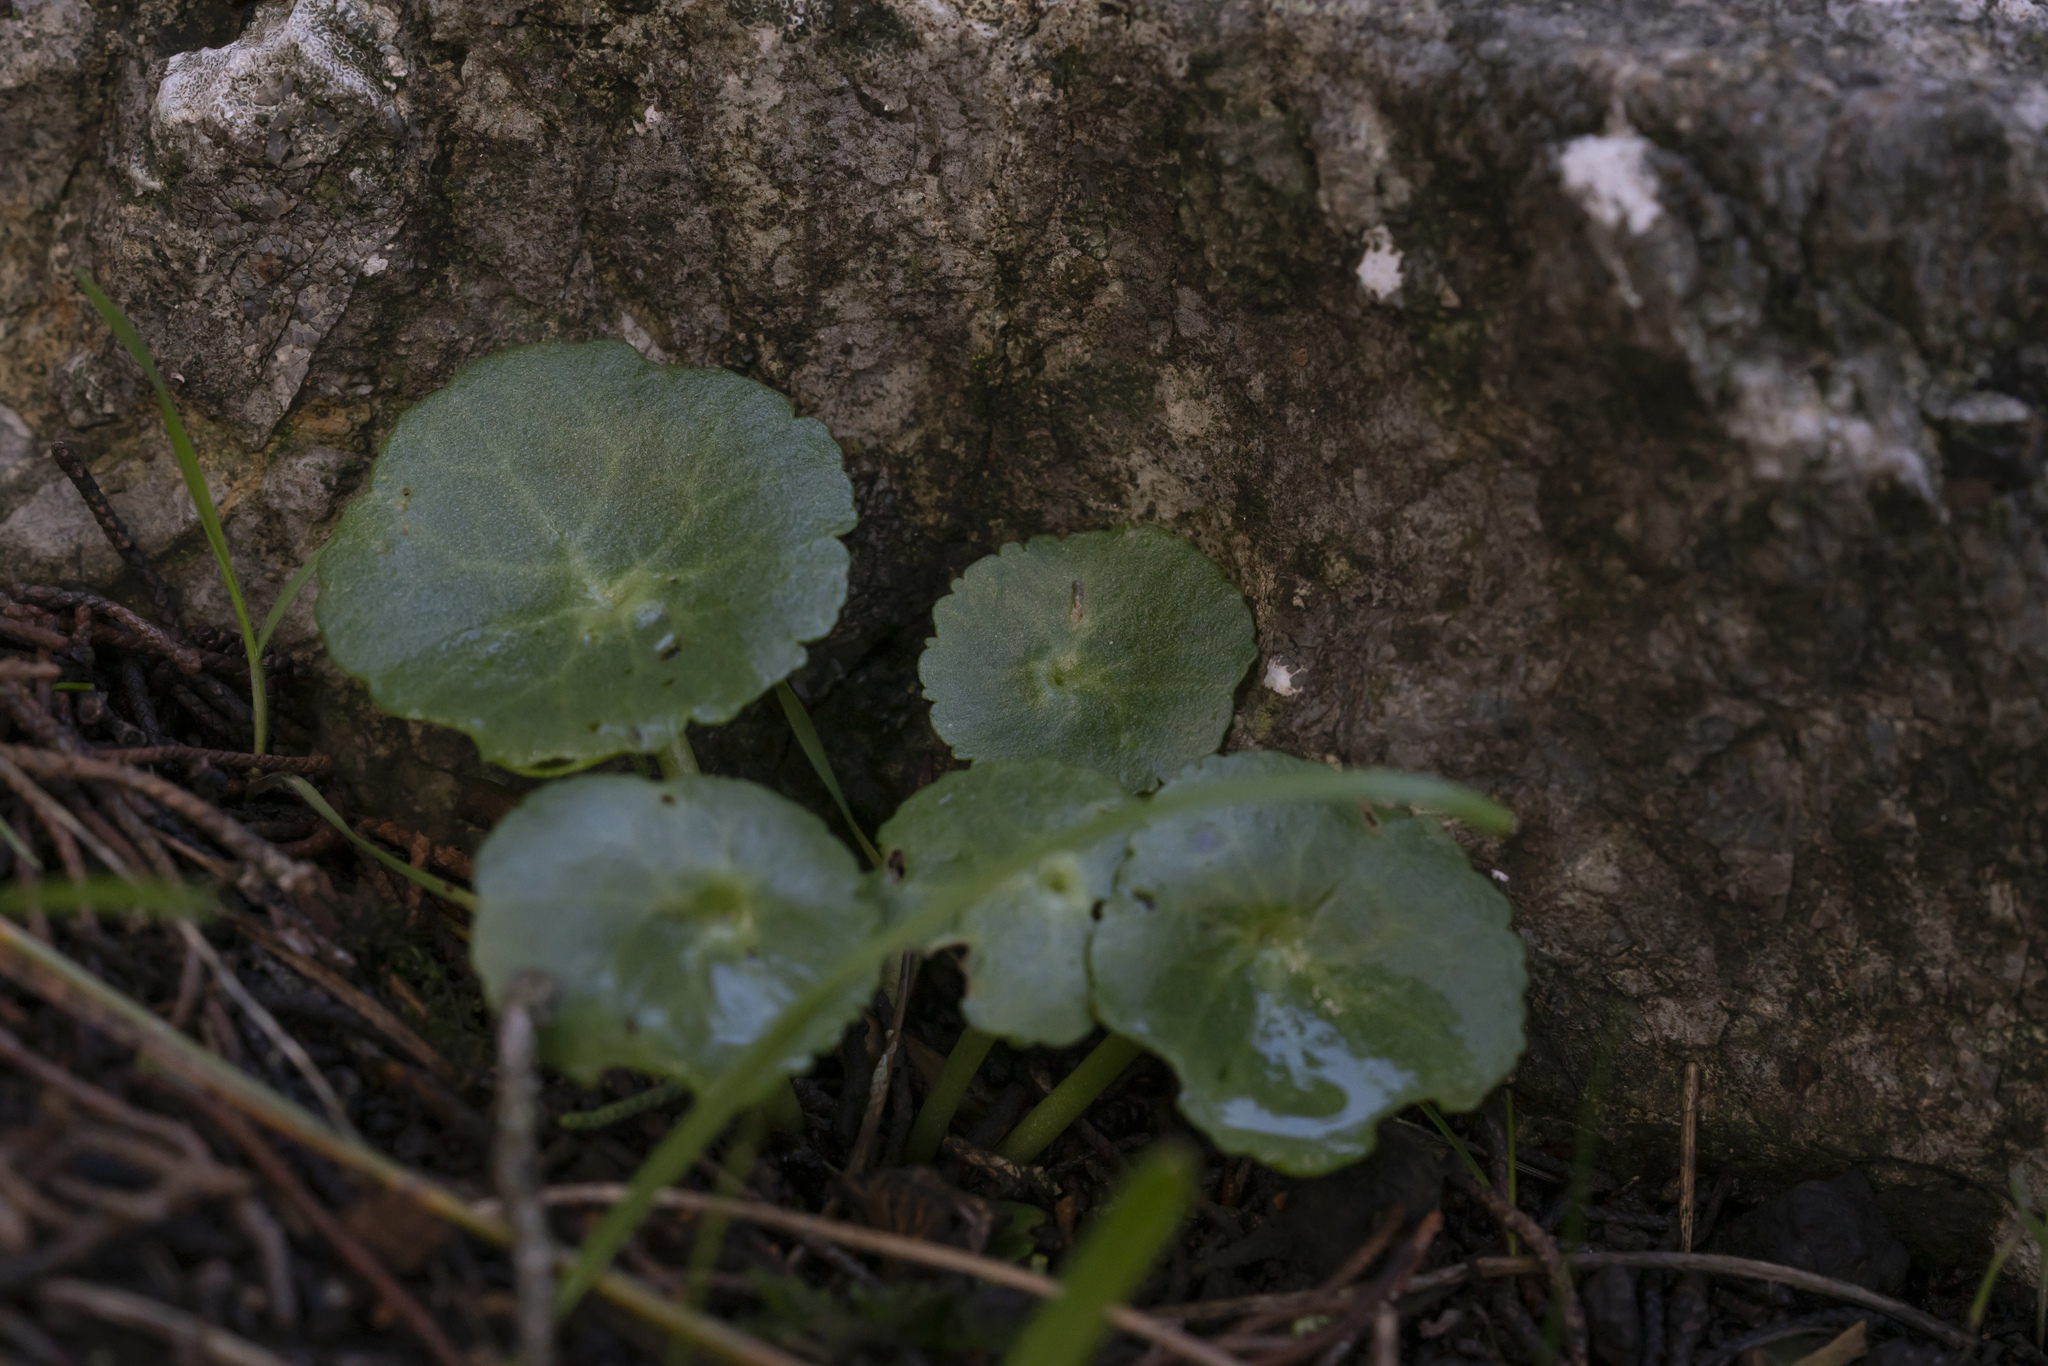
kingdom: Plantae
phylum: Tracheophyta
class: Magnoliopsida
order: Saxifragales
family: Crassulaceae
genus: Umbilicus
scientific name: Umbilicus
